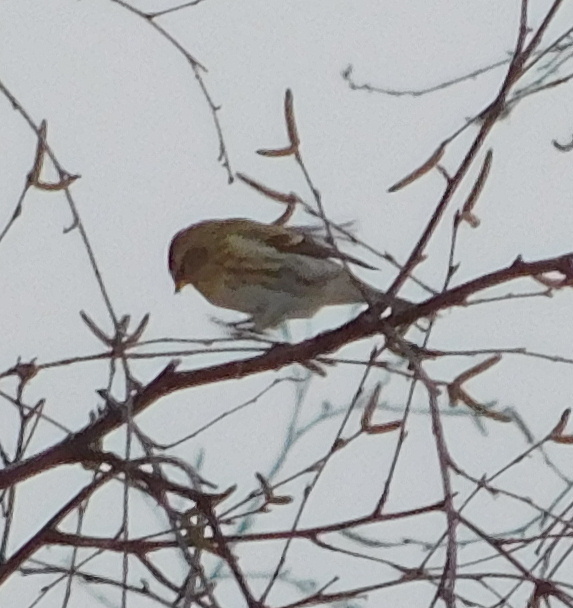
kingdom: Animalia
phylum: Chordata
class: Aves
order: Passeriformes
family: Fringillidae
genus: Acanthis
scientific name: Acanthis flammea
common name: Common redpoll
